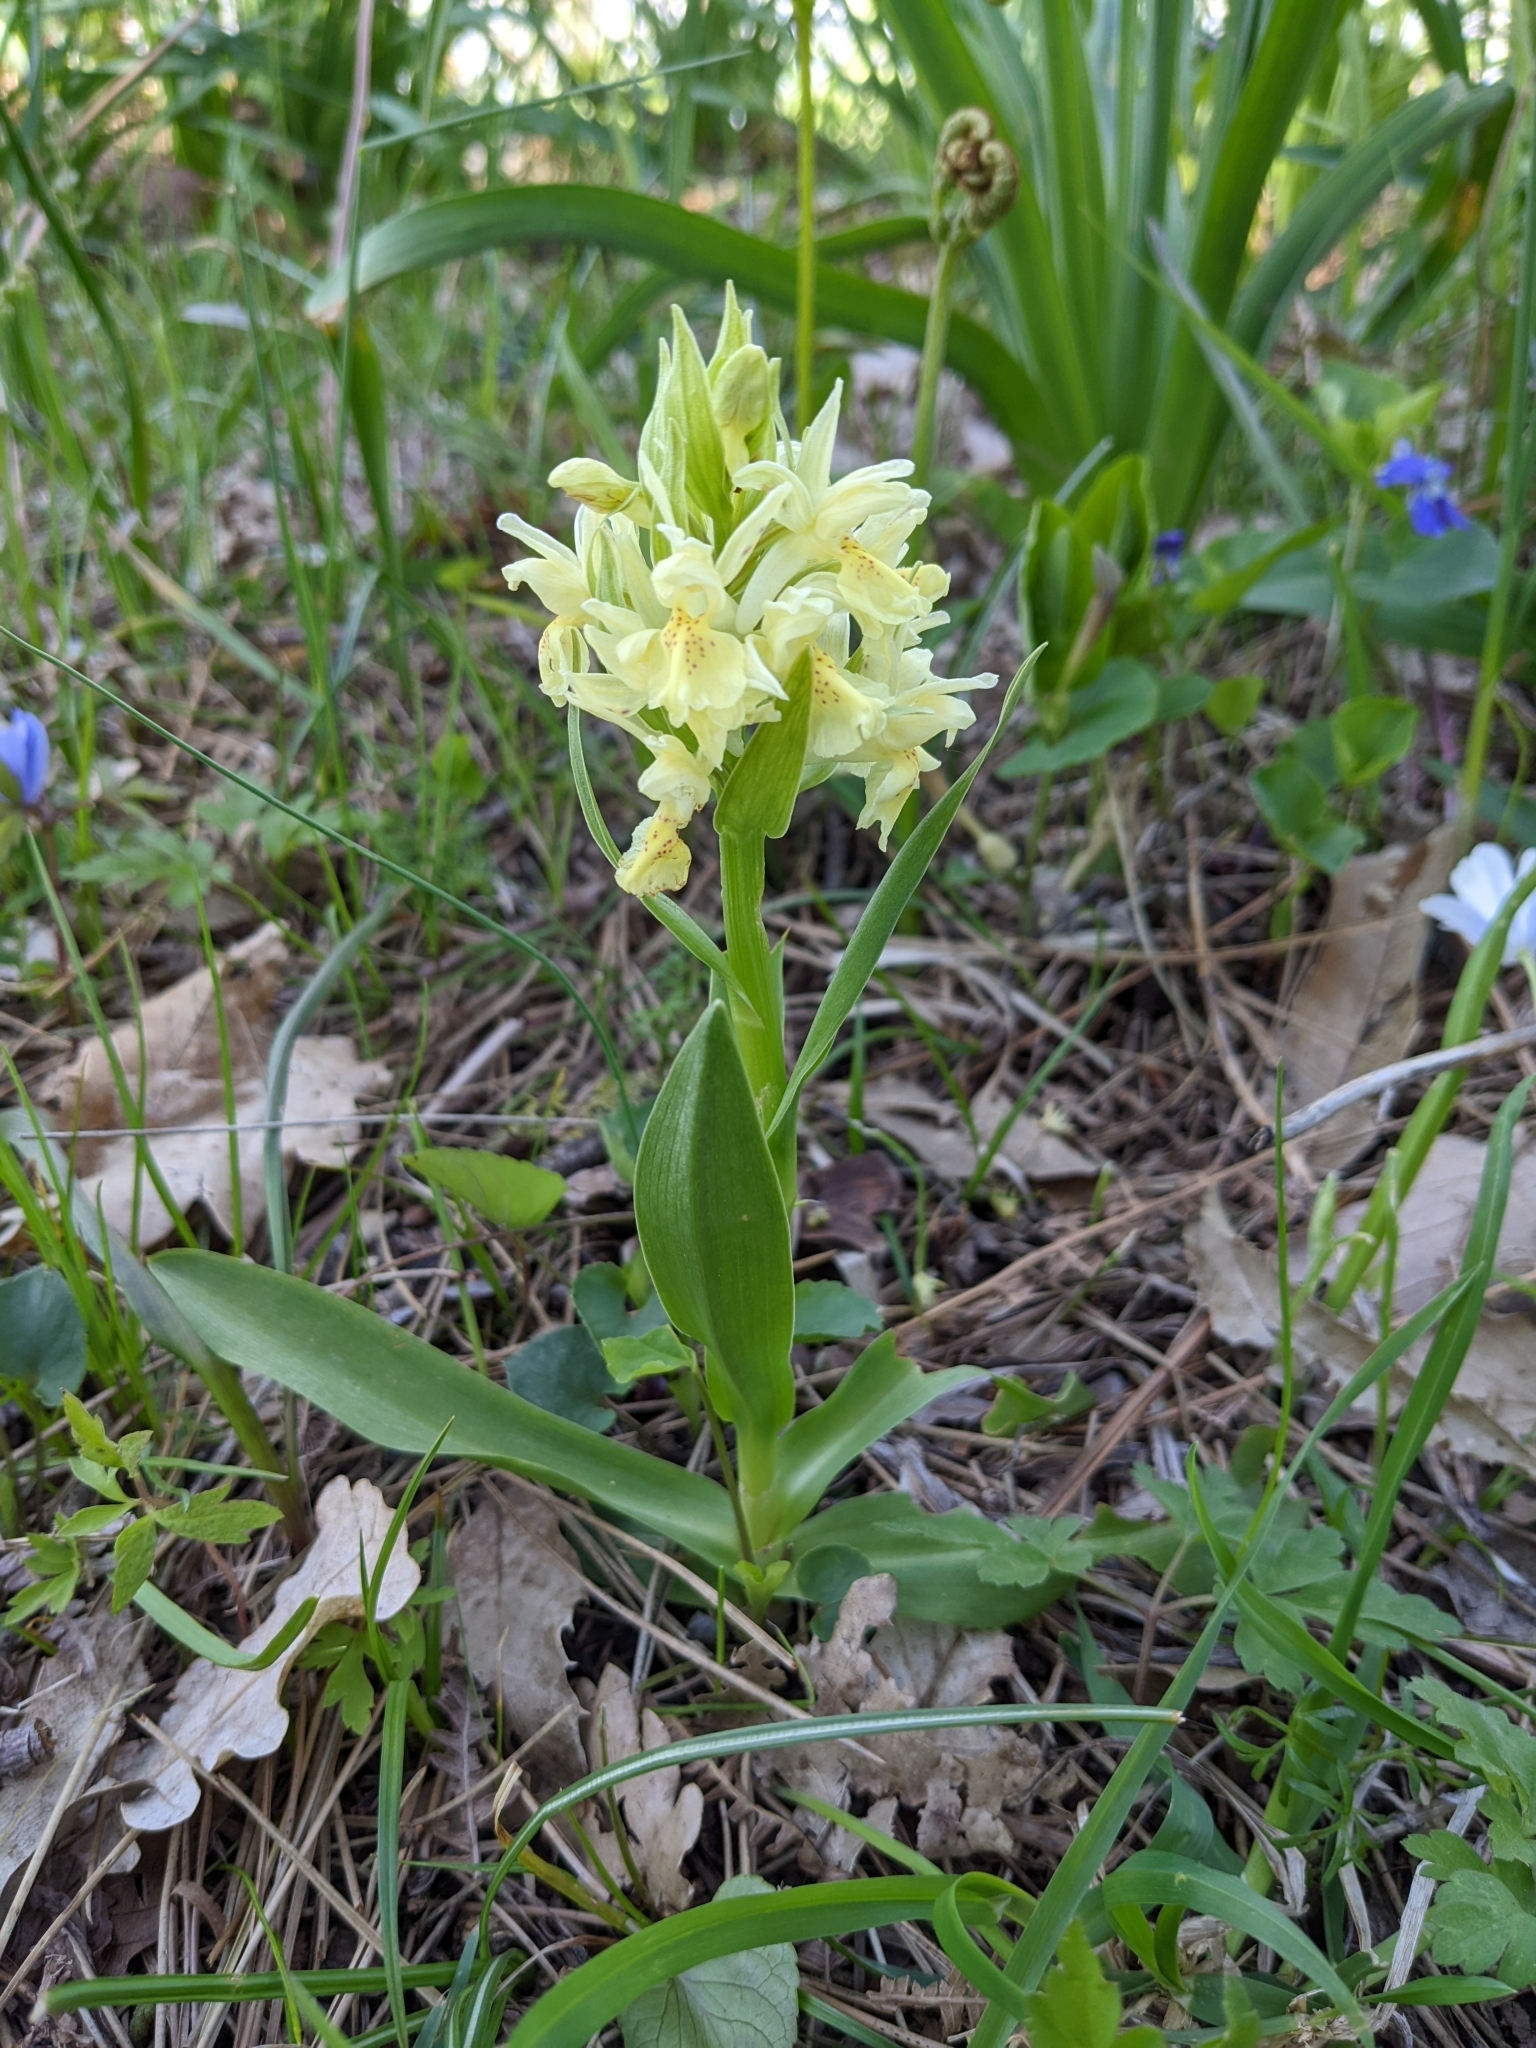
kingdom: Plantae
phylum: Tracheophyta
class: Liliopsida
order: Asparagales
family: Orchidaceae
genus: Dactylorhiza
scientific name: Dactylorhiza sambucina
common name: Elder-flowered orchid
